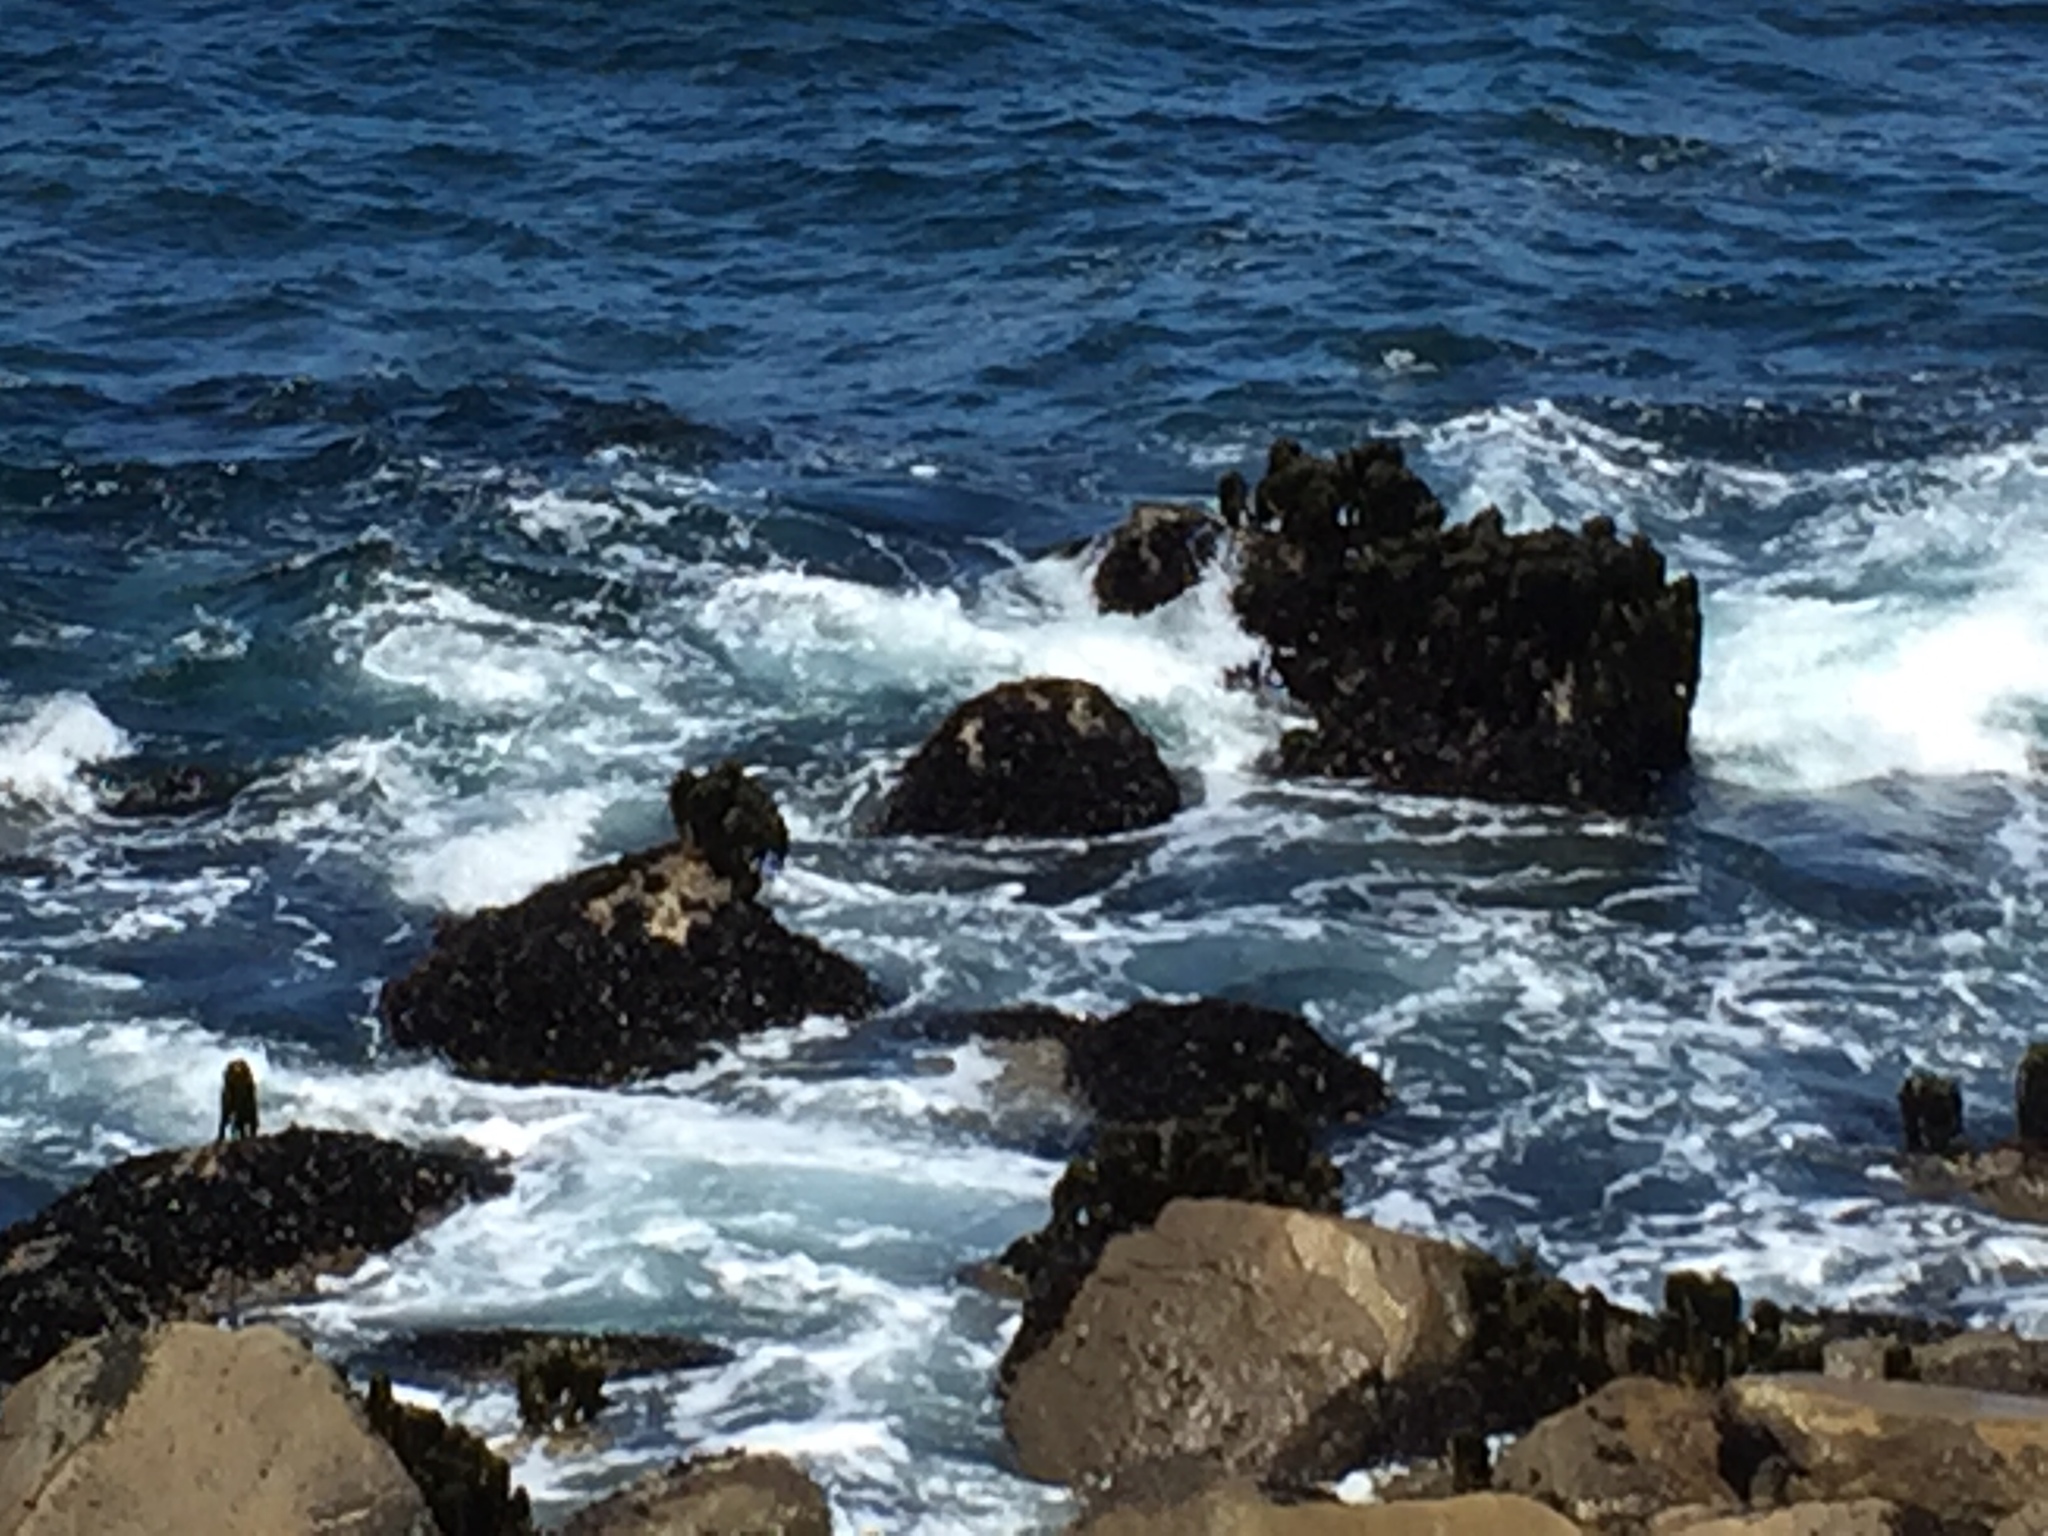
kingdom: Chromista
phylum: Ochrophyta
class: Phaeophyceae
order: Laminariales
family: Laminariaceae
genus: Postelsia
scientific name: Postelsia palmiformis
